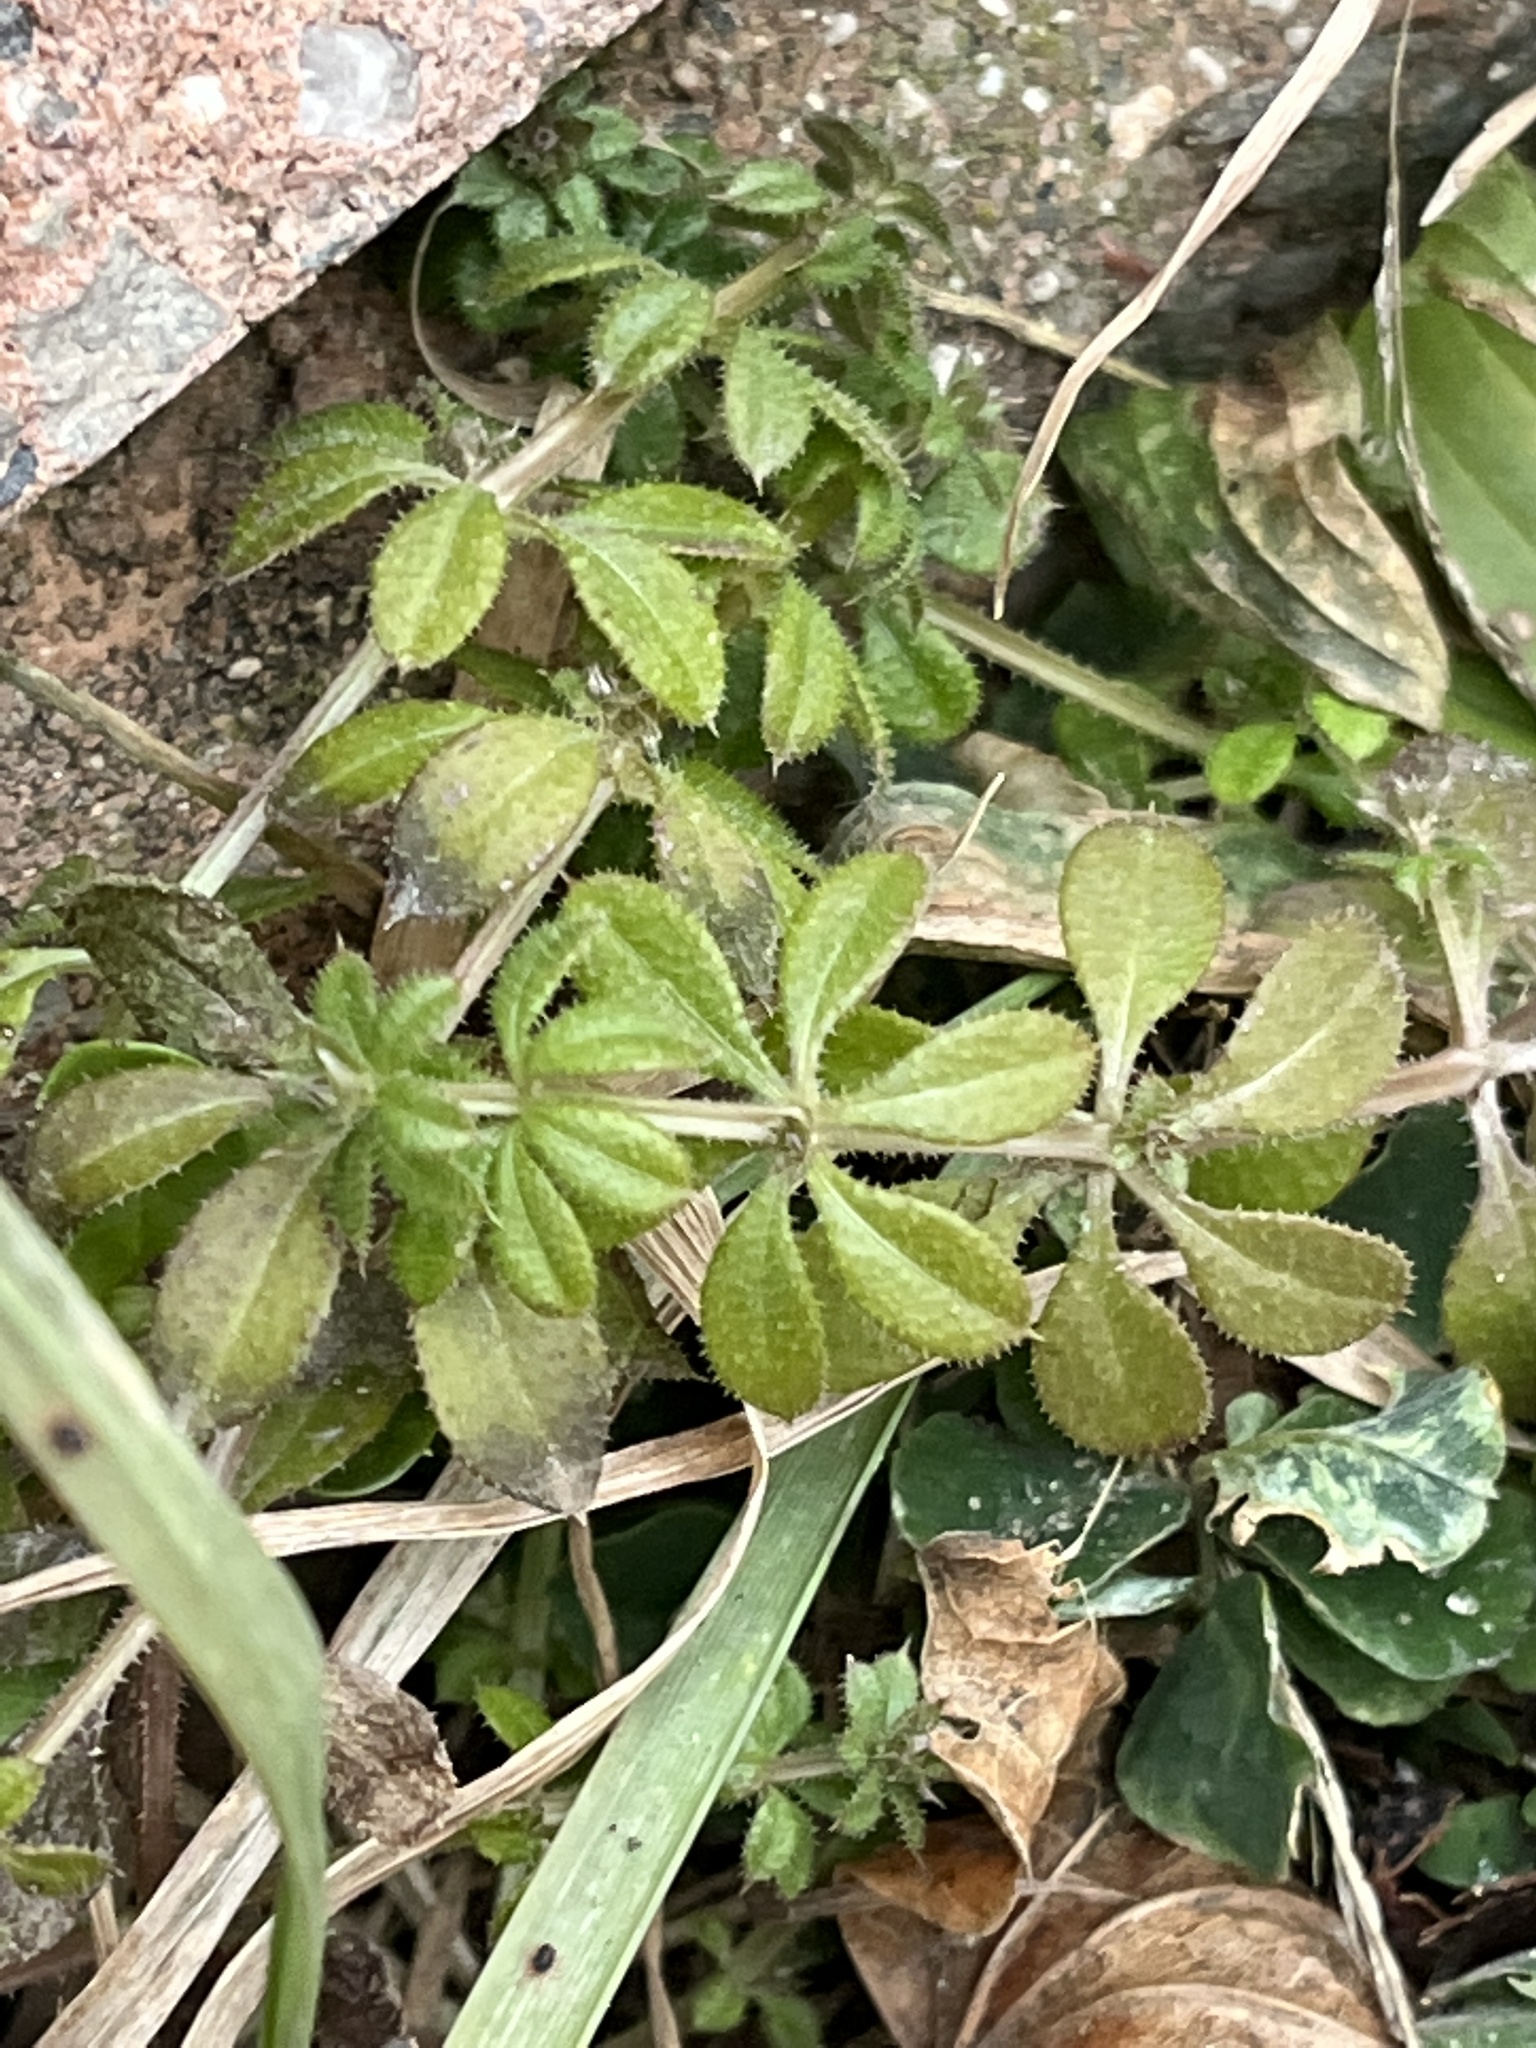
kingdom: Plantae
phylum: Tracheophyta
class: Magnoliopsida
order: Gentianales
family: Rubiaceae
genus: Galium
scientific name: Galium aparine
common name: Cleavers
